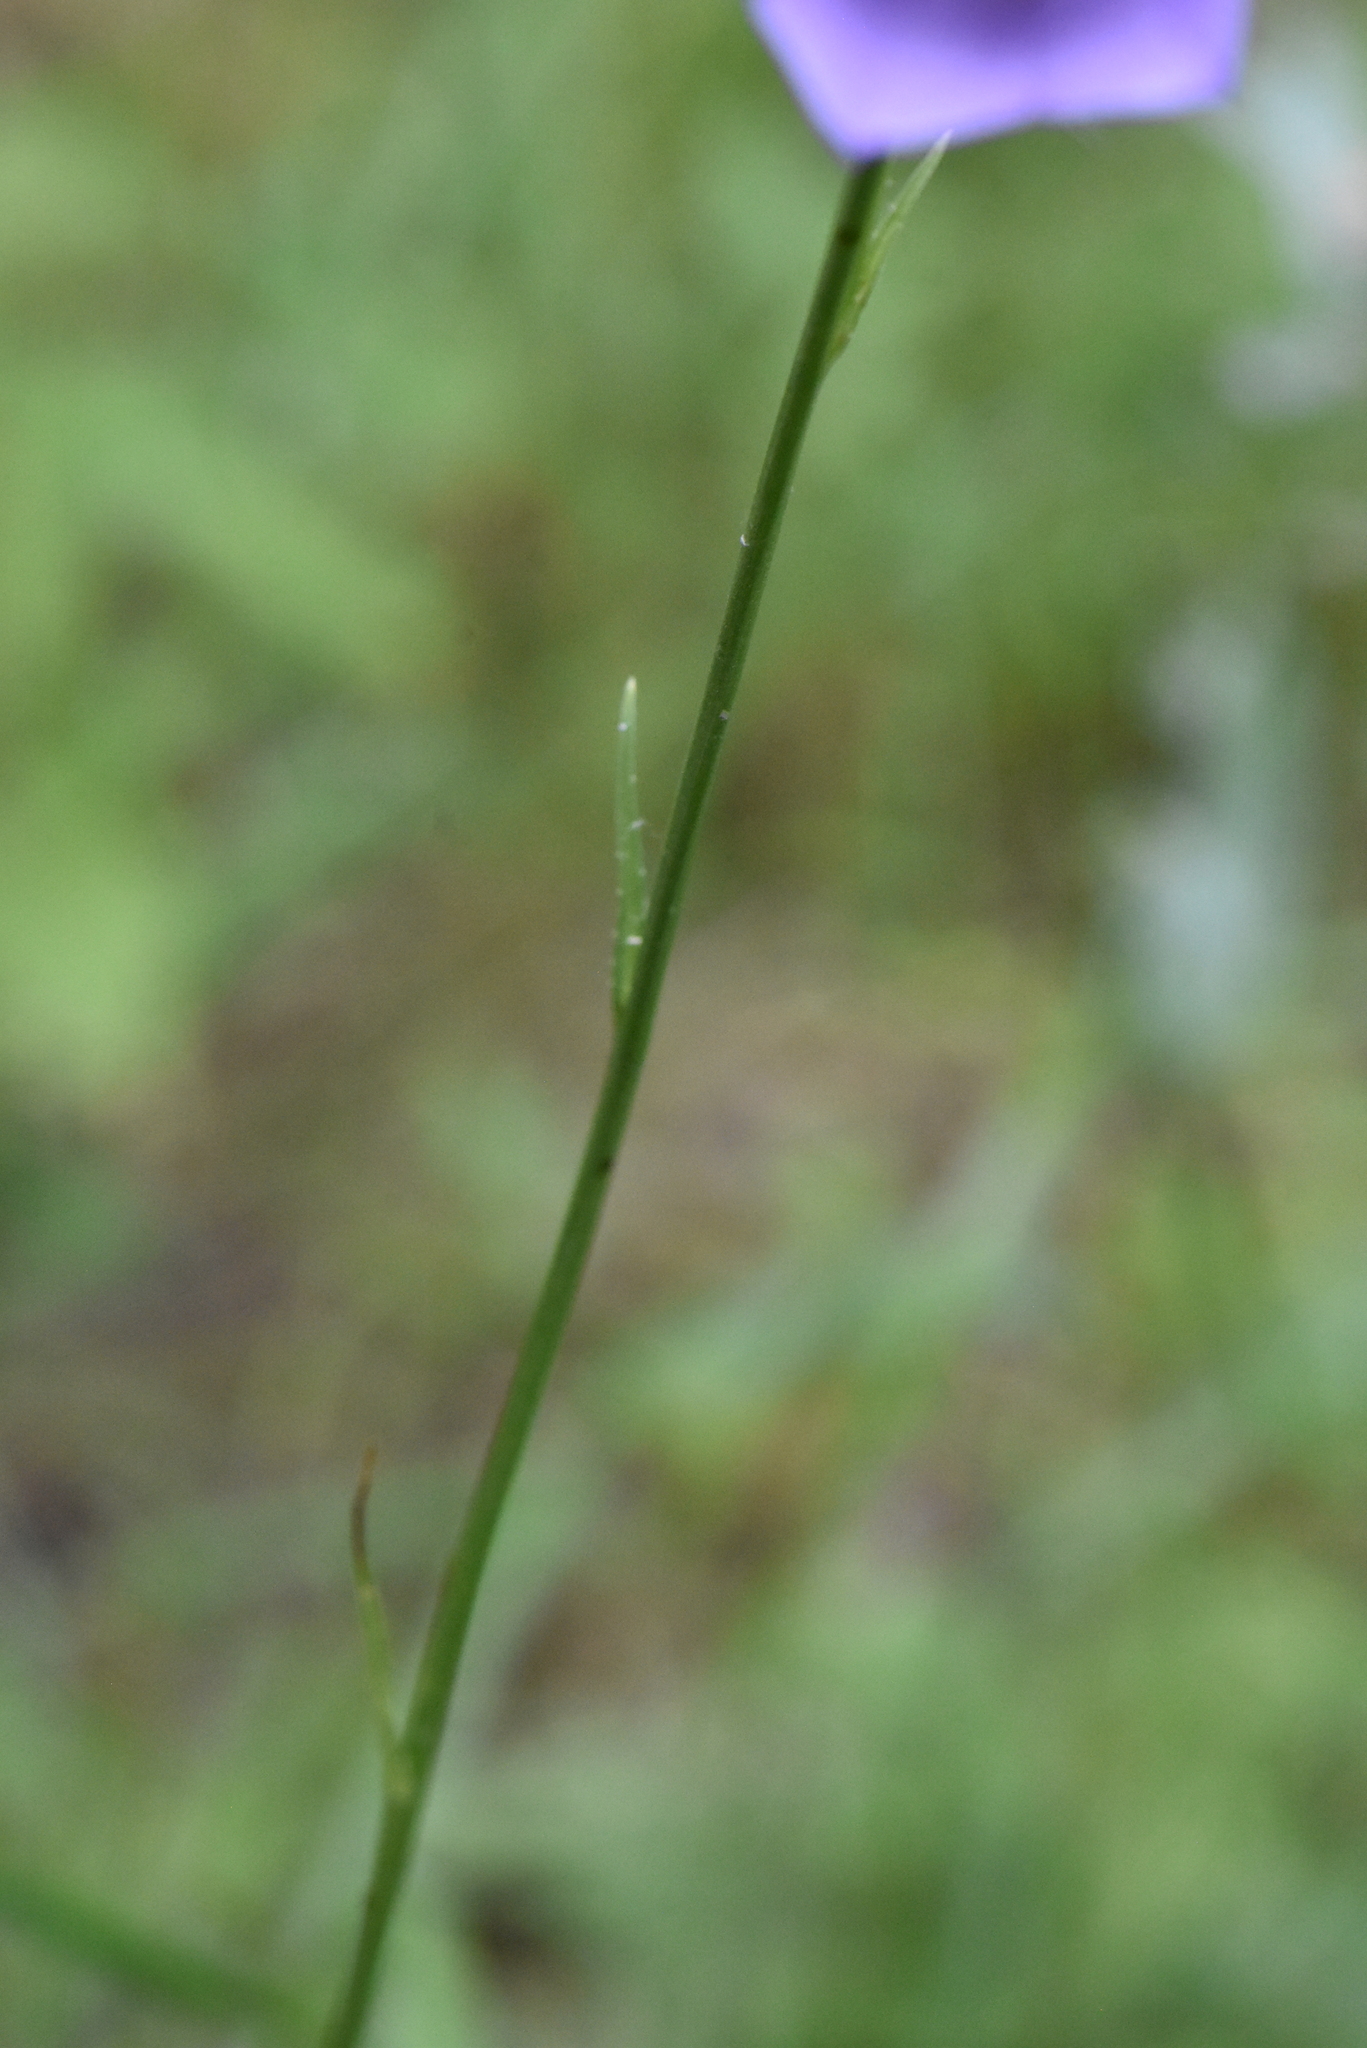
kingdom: Plantae
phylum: Tracheophyta
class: Magnoliopsida
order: Asterales
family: Campanulaceae
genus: Campanula
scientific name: Campanula persicifolia
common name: Peach-leaved bellflower
